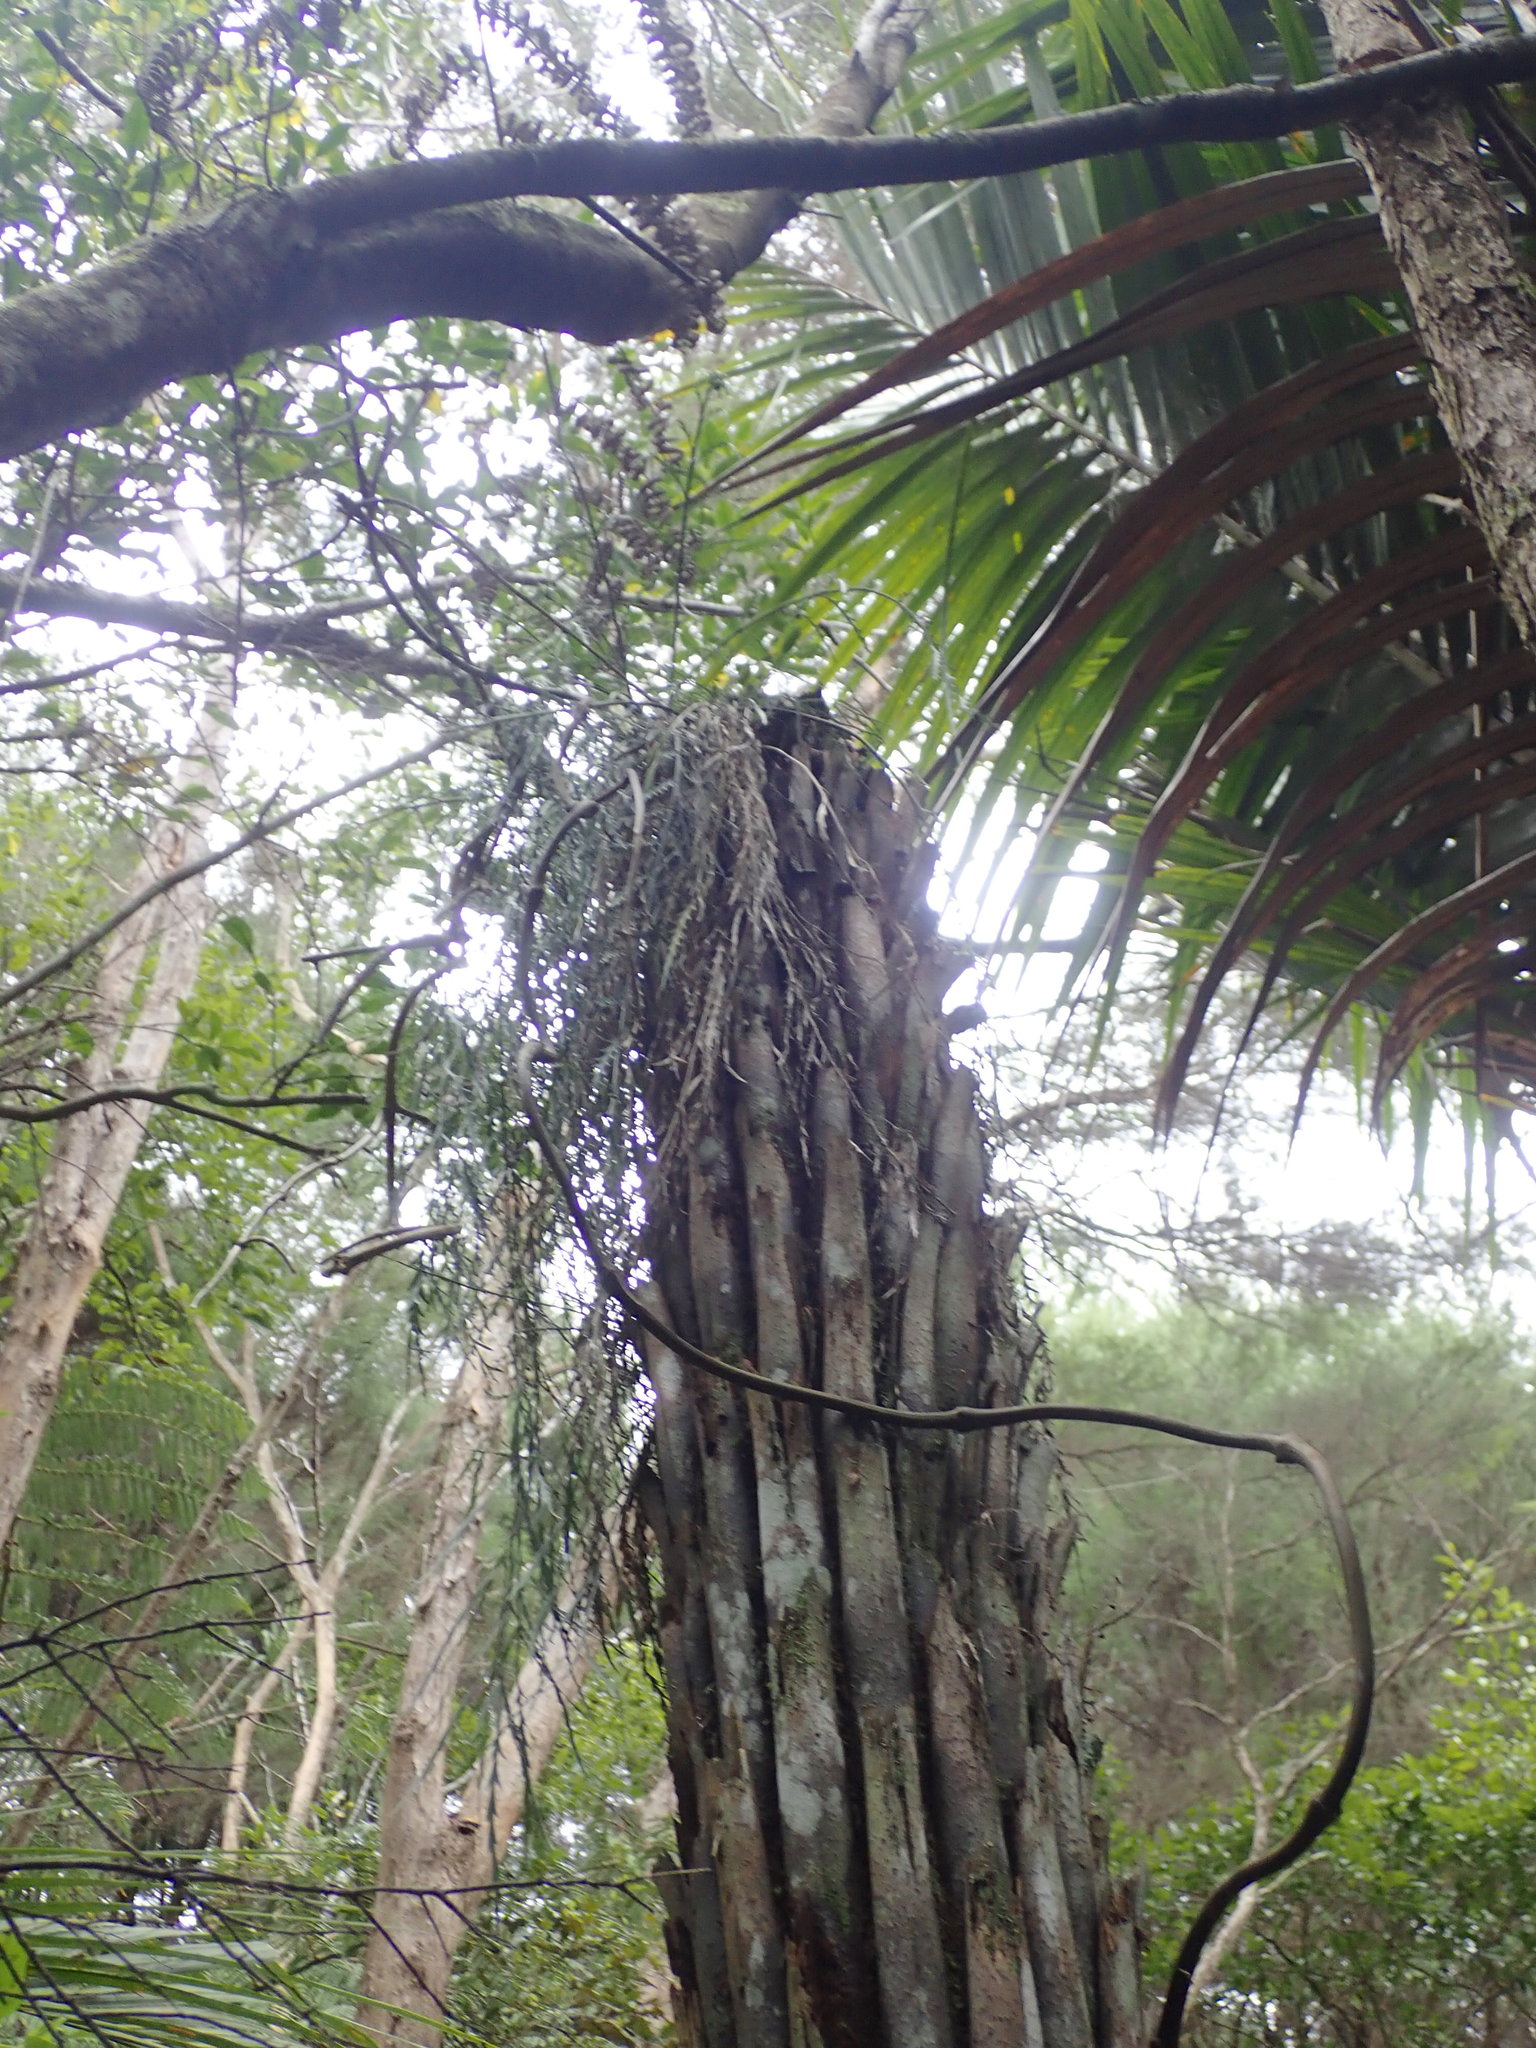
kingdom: Plantae
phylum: Tracheophyta
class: Polypodiopsida
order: Polypodiales
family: Aspleniaceae
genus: Asplenium
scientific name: Asplenium flaccidum
